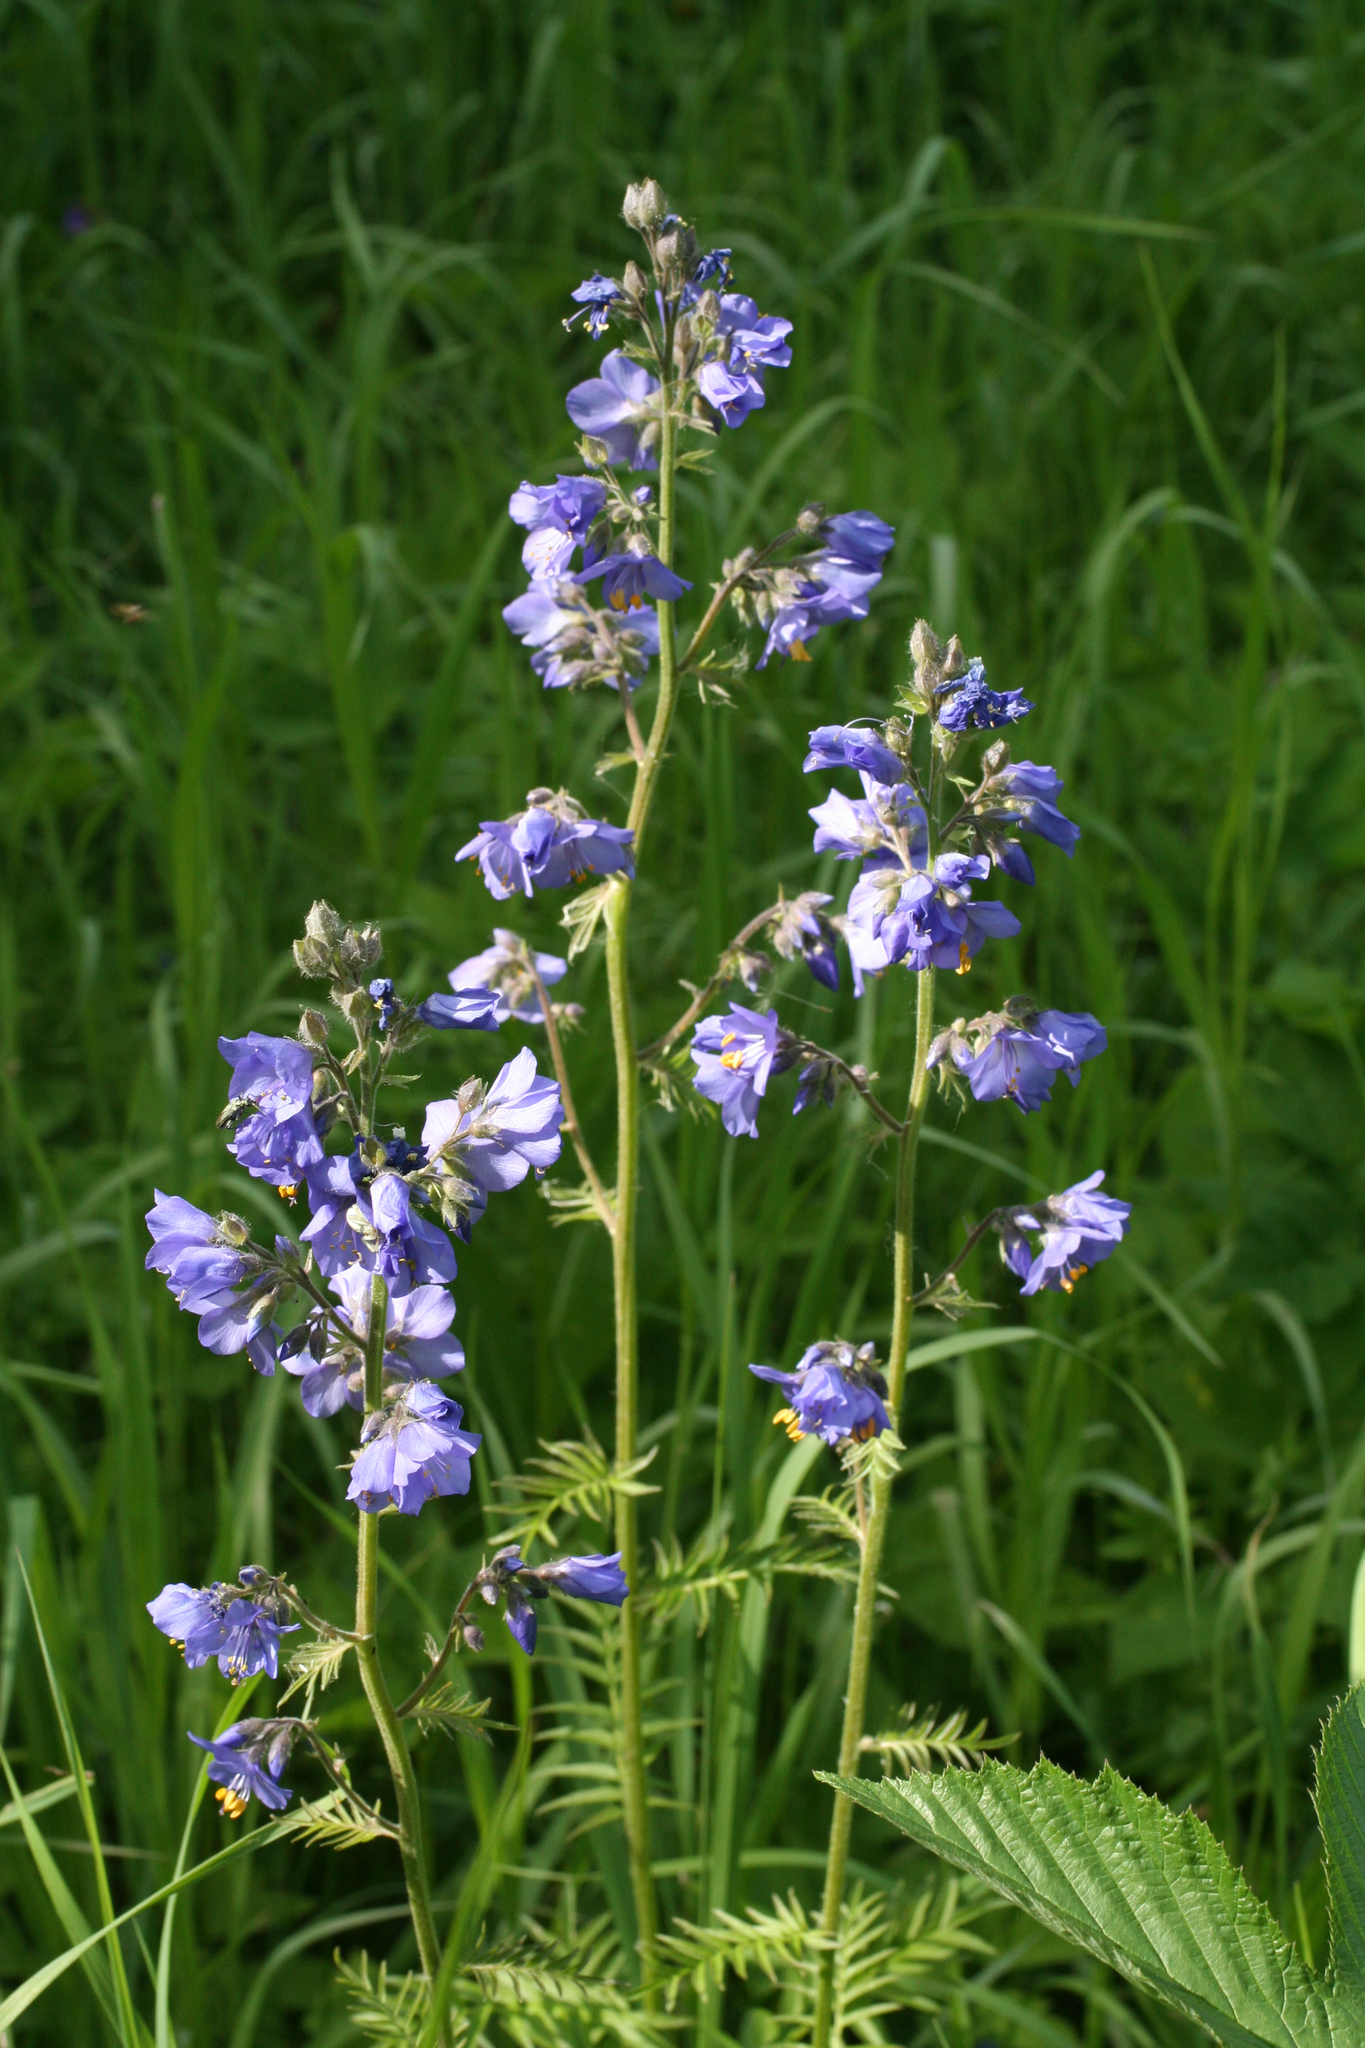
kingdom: Plantae
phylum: Tracheophyta
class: Magnoliopsida
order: Ericales
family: Polemoniaceae
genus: Polemonium
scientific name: Polemonium caeruleum
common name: Jacob's-ladder
